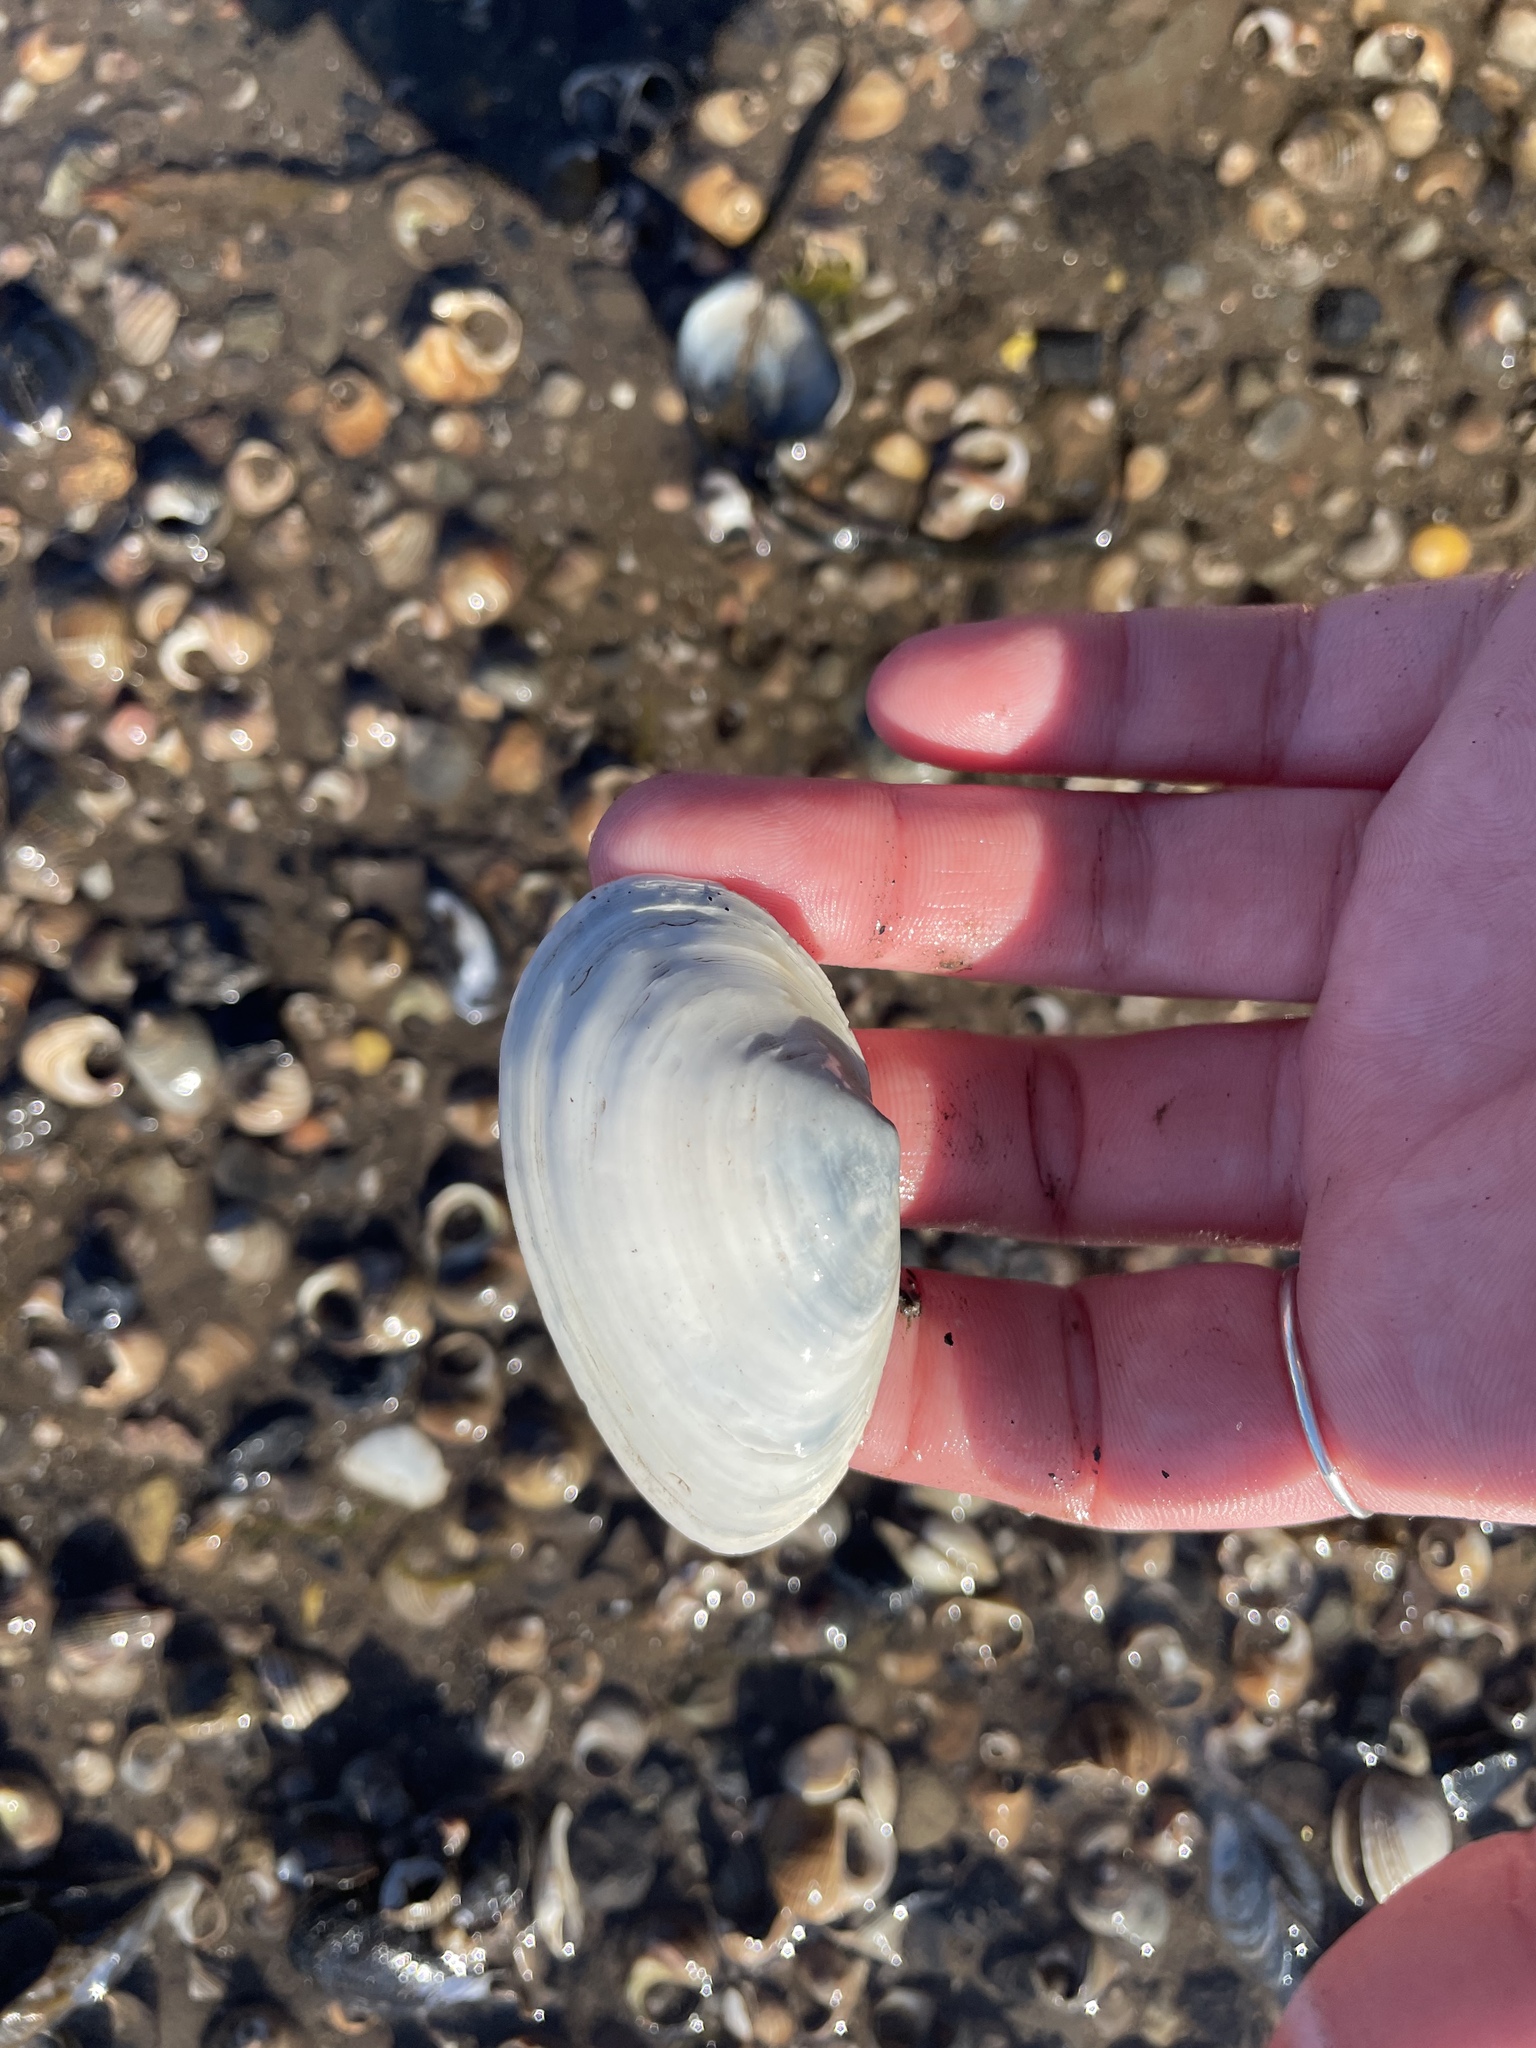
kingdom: Animalia
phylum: Mollusca
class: Bivalvia
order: Myida
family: Myidae
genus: Mya
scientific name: Mya arenaria
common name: Soft-shelled clam
